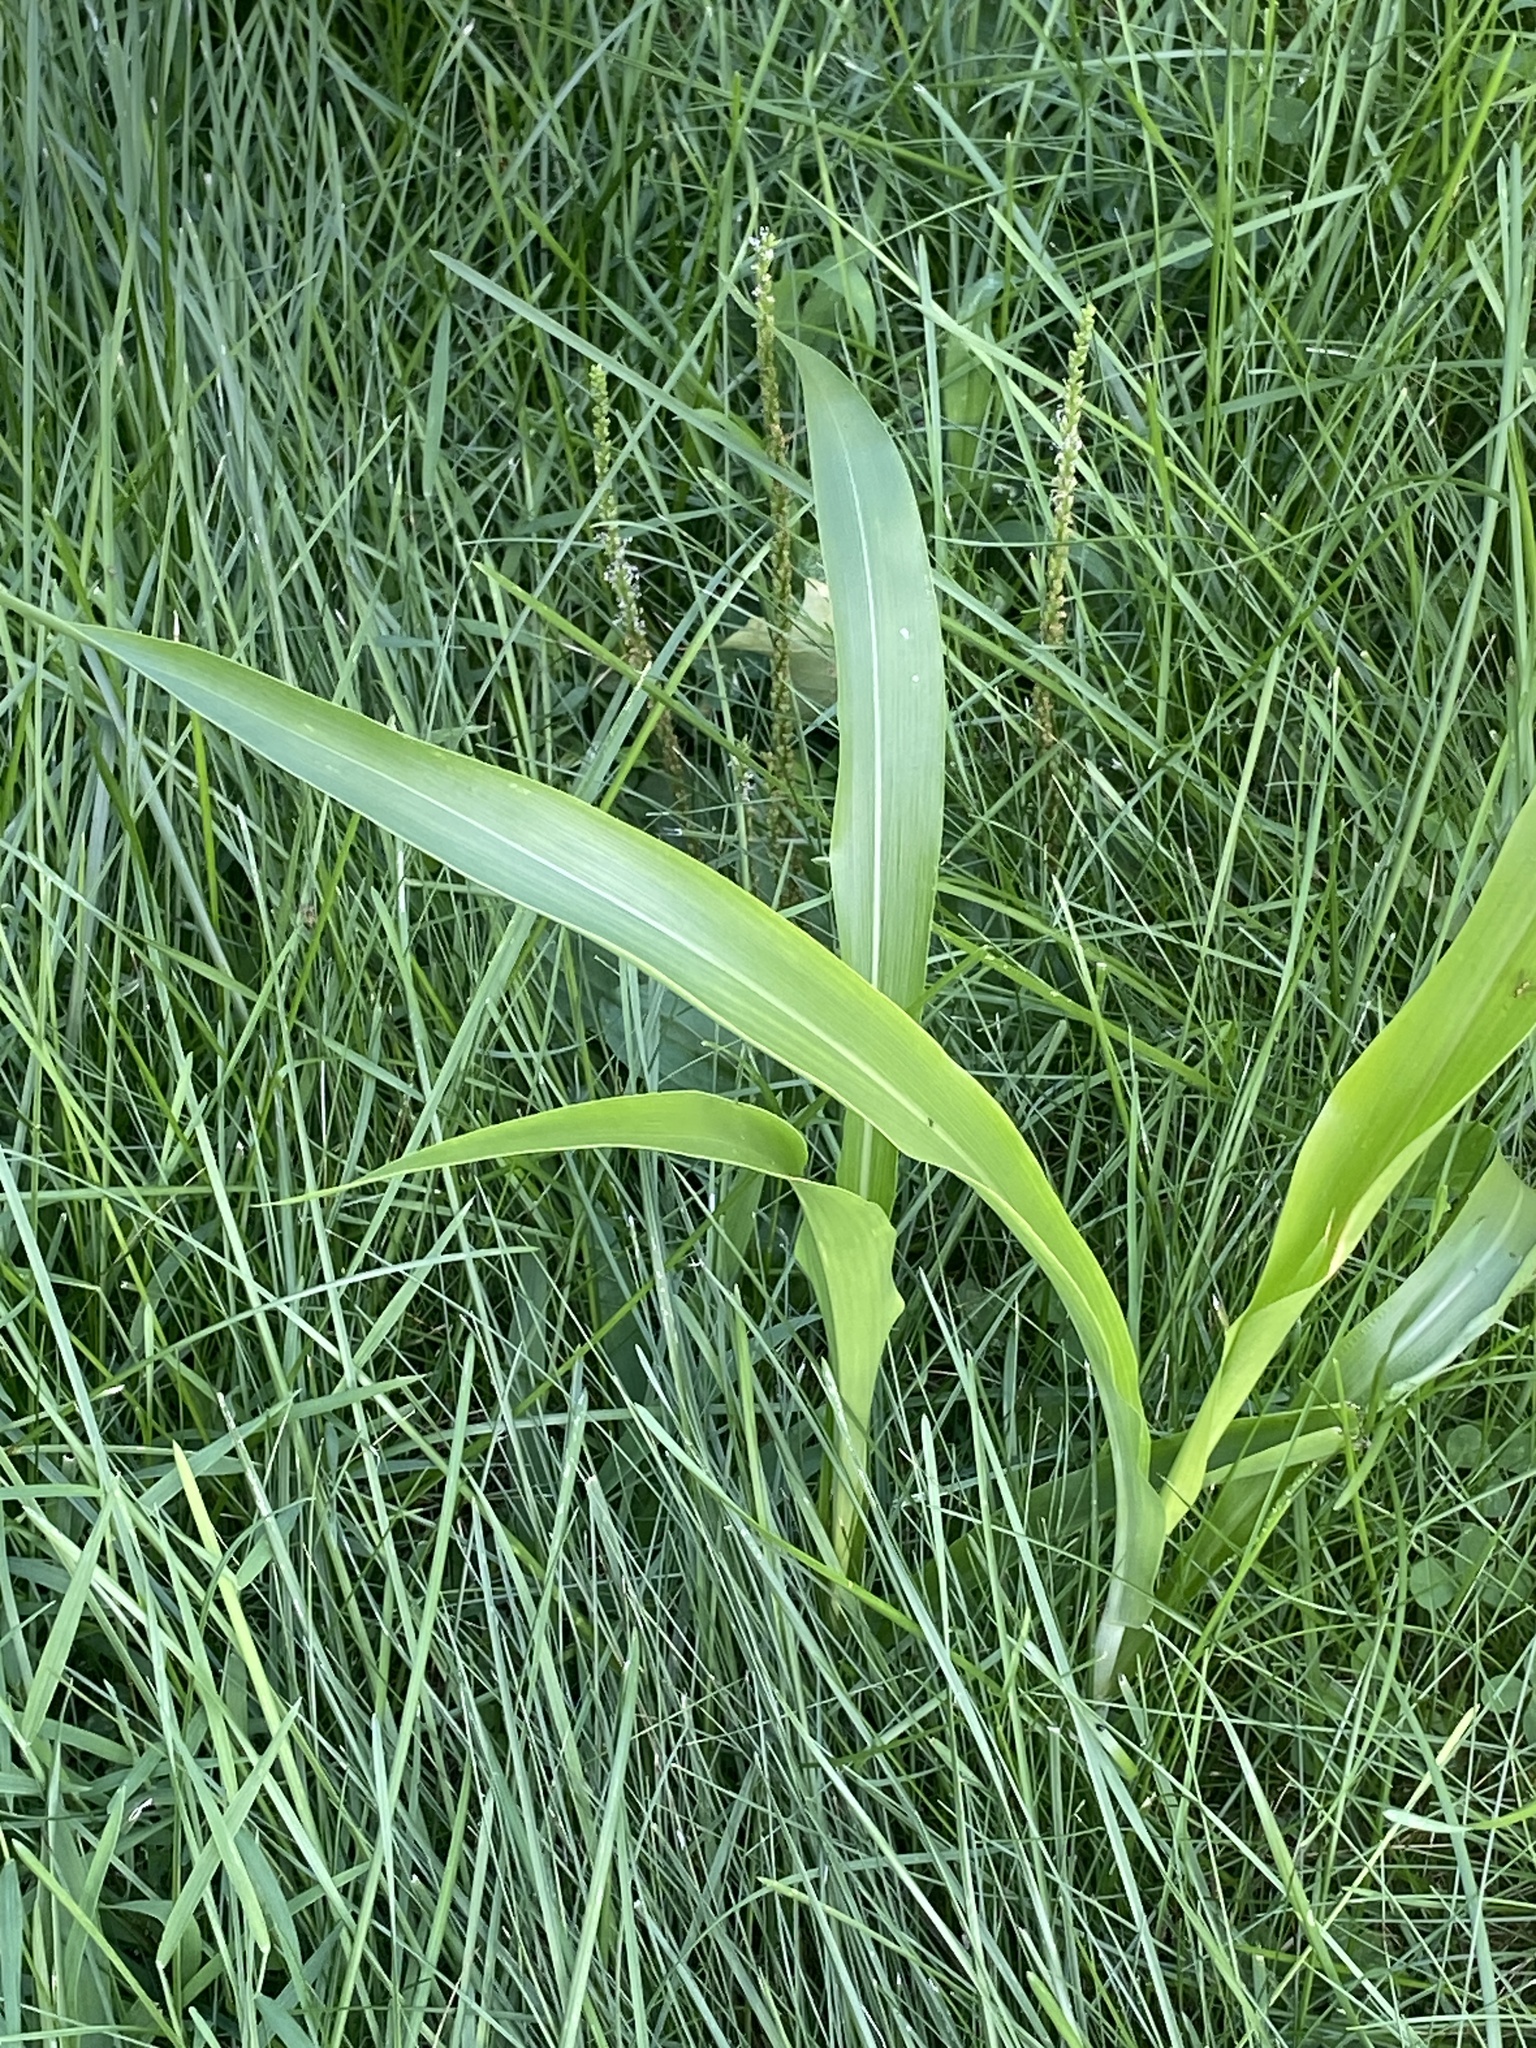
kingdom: Plantae
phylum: Tracheophyta
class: Liliopsida
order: Poales
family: Poaceae
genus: Sorghum
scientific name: Sorghum bicolor
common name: Sorghum
